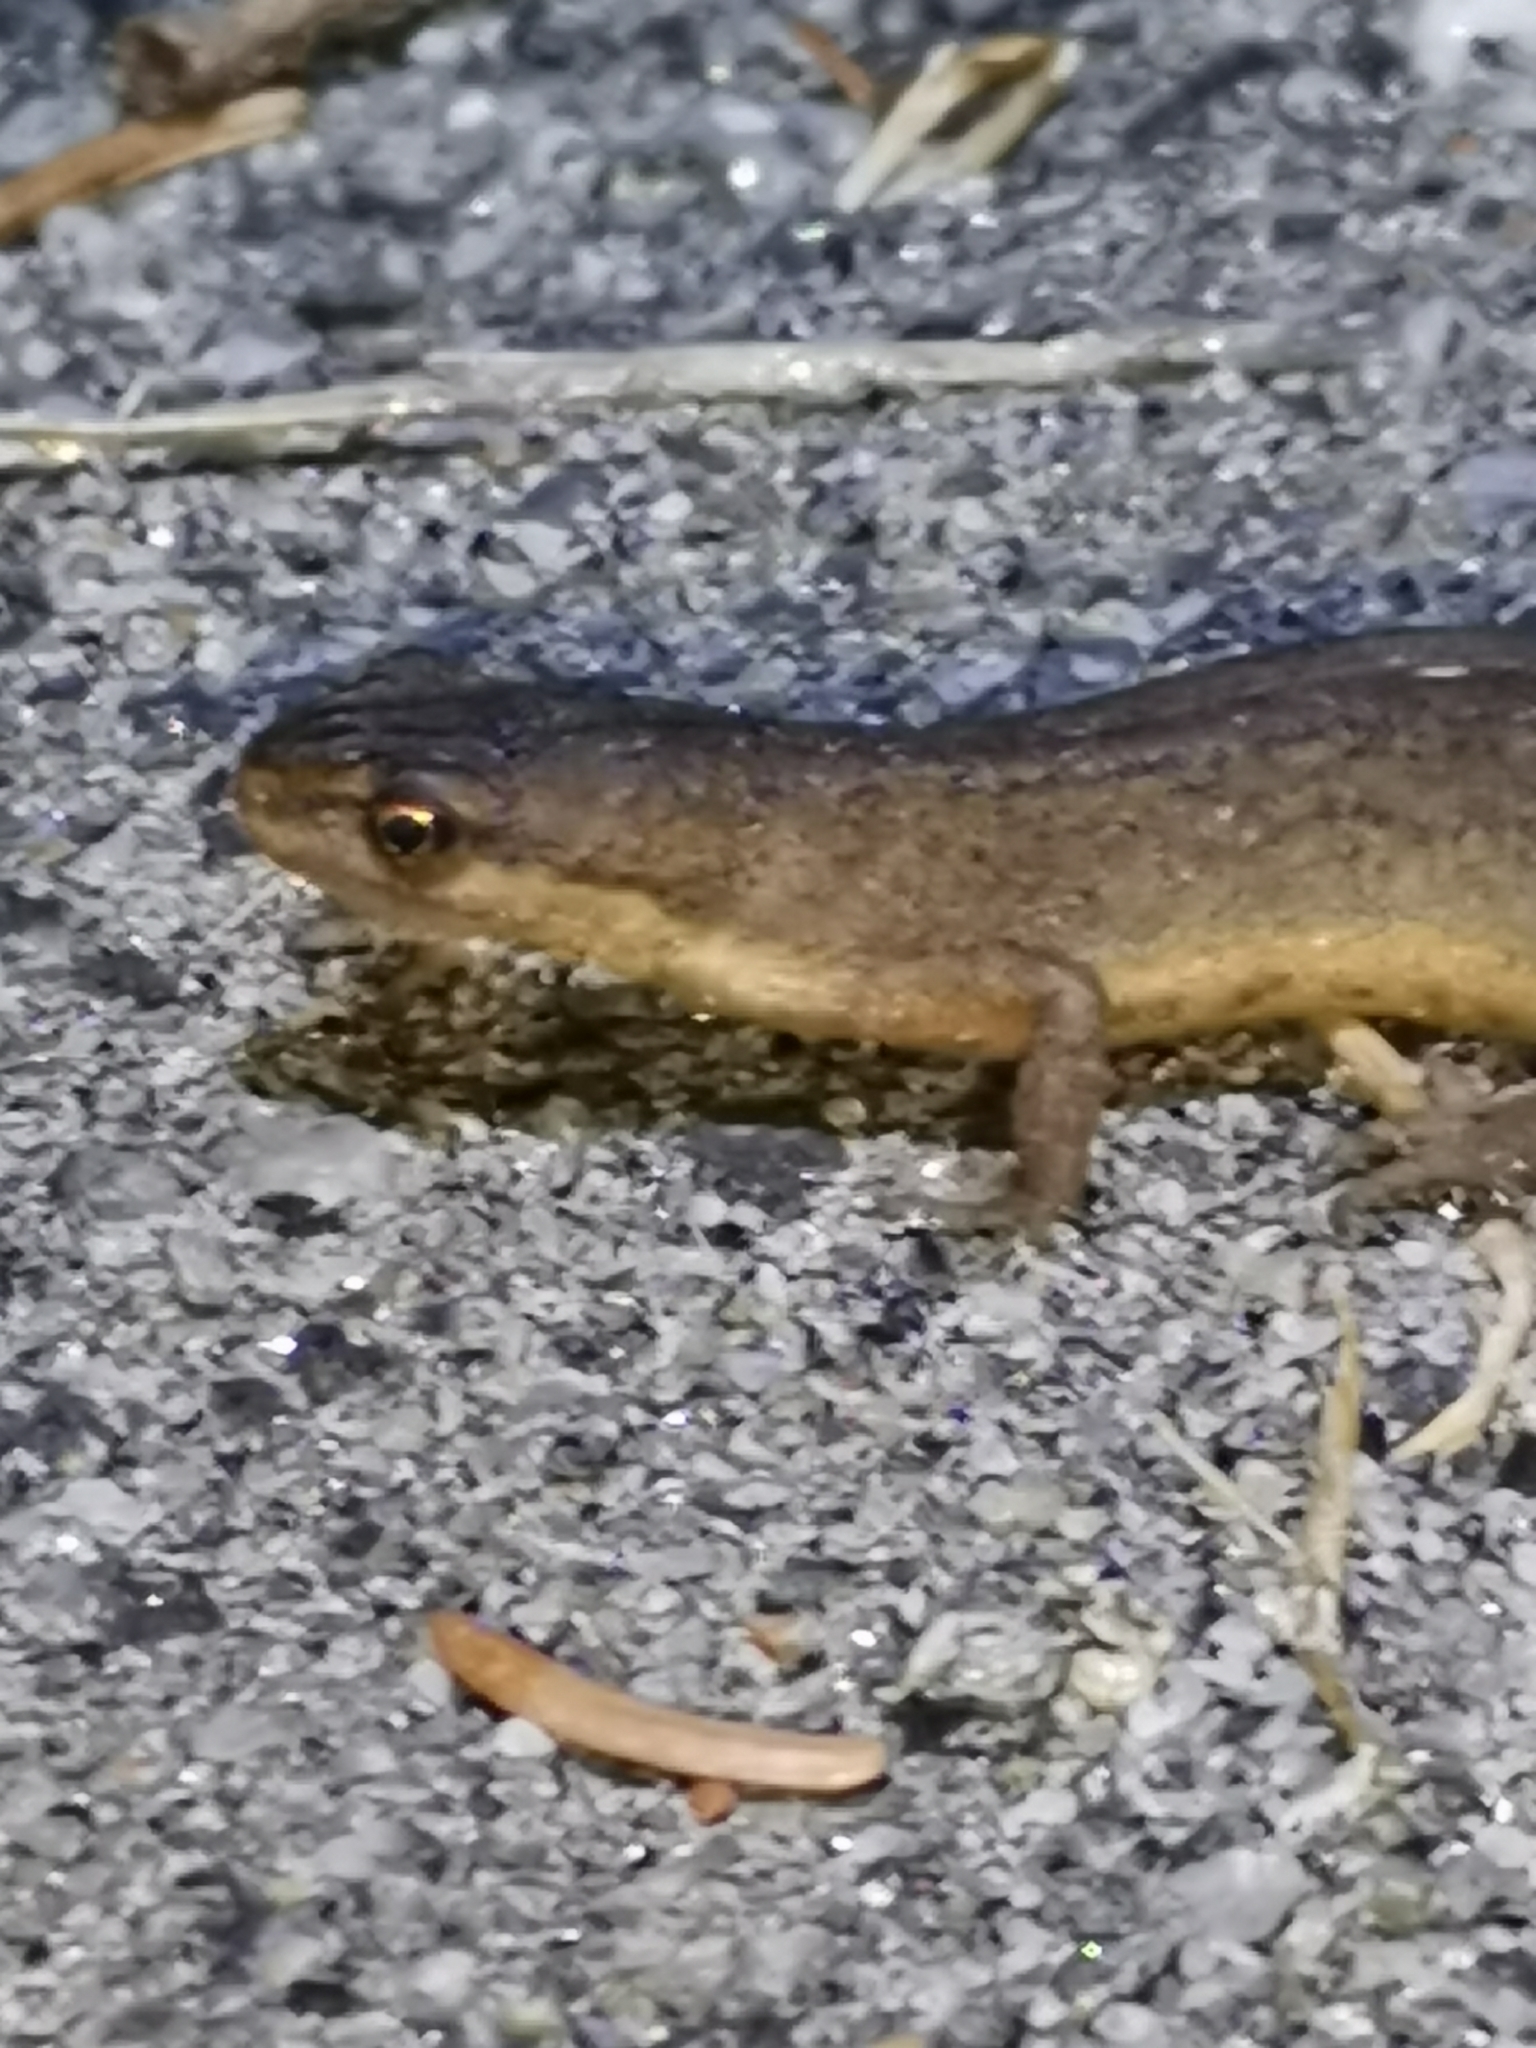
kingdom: Animalia
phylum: Chordata
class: Amphibia
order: Caudata
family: Salamandridae
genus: Lissotriton
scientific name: Lissotriton vulgaris
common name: Smooth newt
